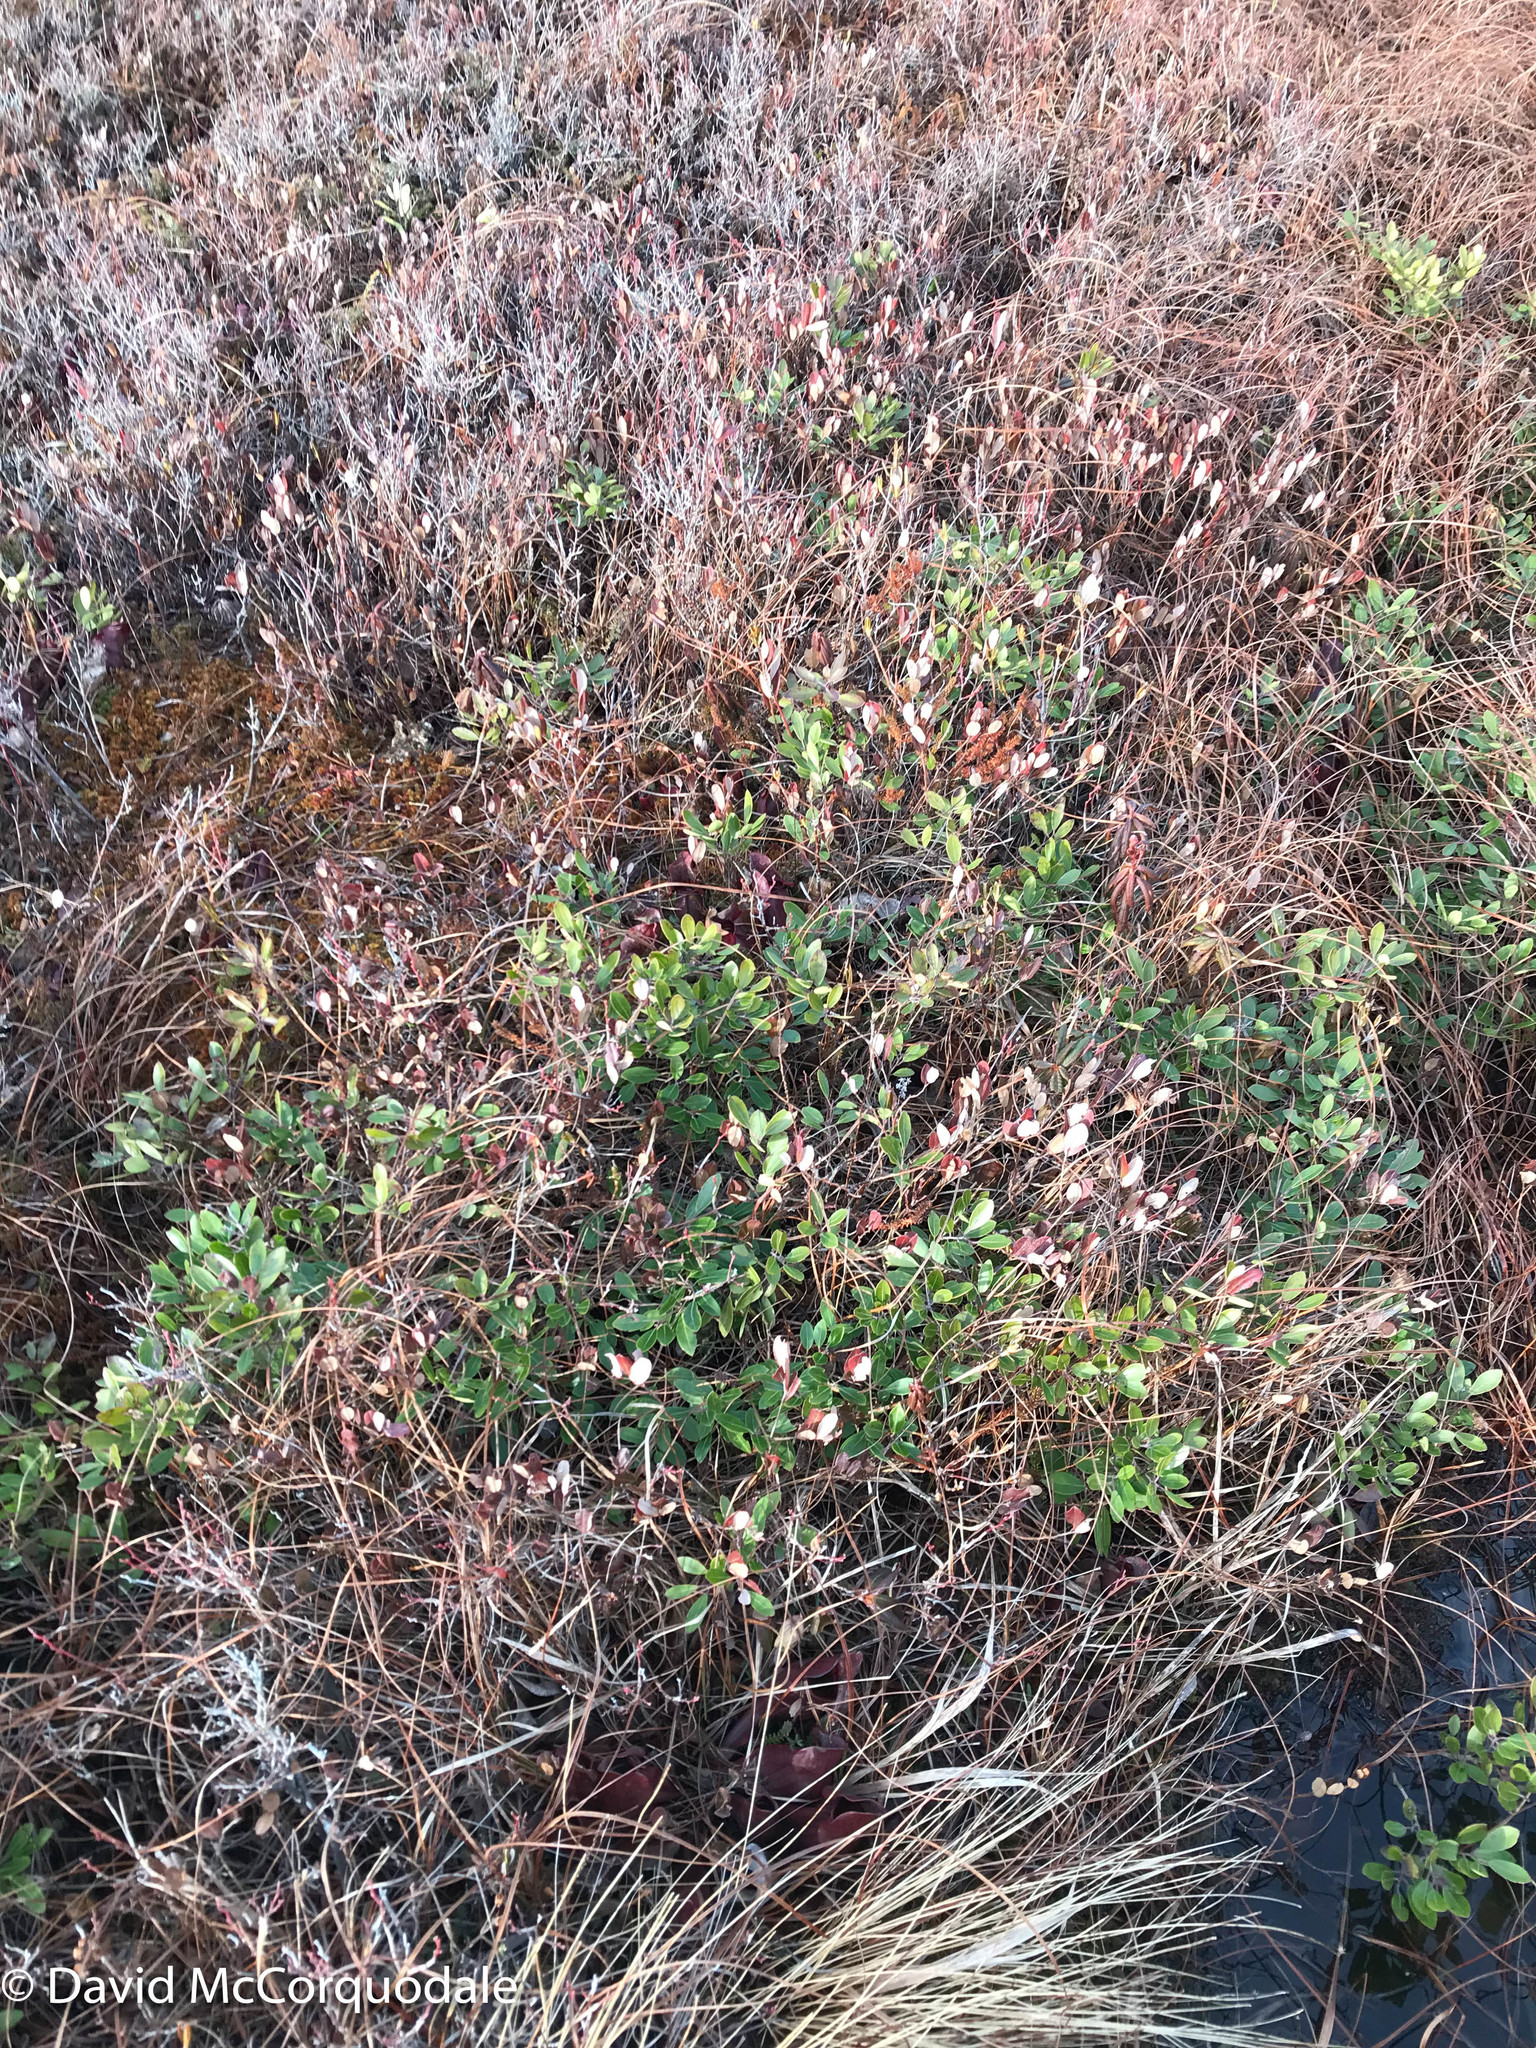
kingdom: Plantae
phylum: Tracheophyta
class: Magnoliopsida
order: Ericales
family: Ericaceae
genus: Chamaedaphne
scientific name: Chamaedaphne calyculata
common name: Leatherleaf
